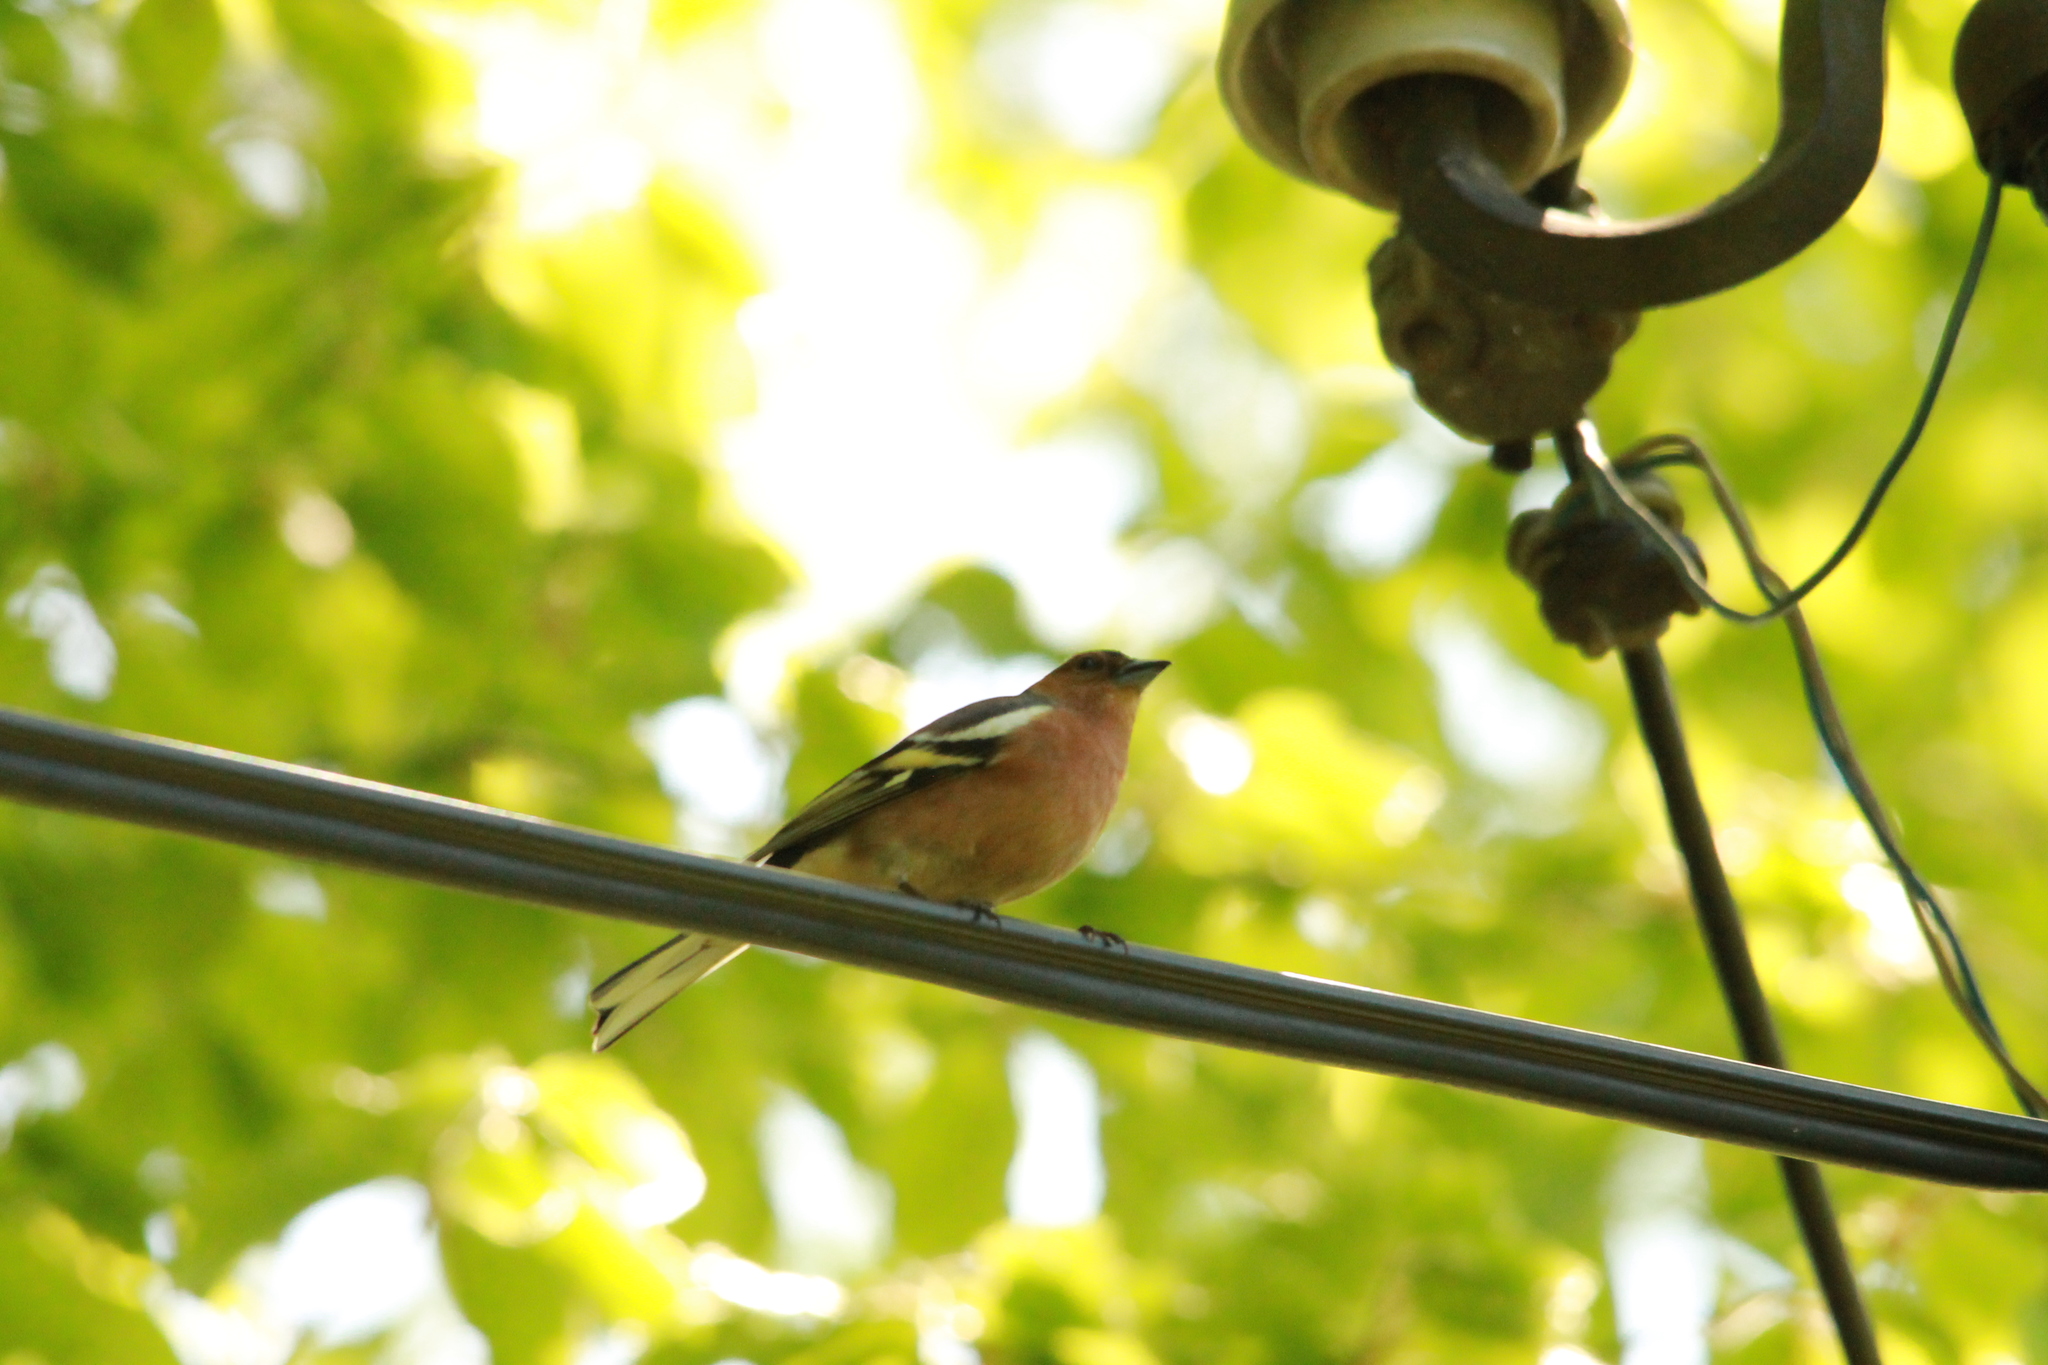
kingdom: Animalia
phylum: Chordata
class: Aves
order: Passeriformes
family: Fringillidae
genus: Fringilla
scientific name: Fringilla coelebs
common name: Common chaffinch
